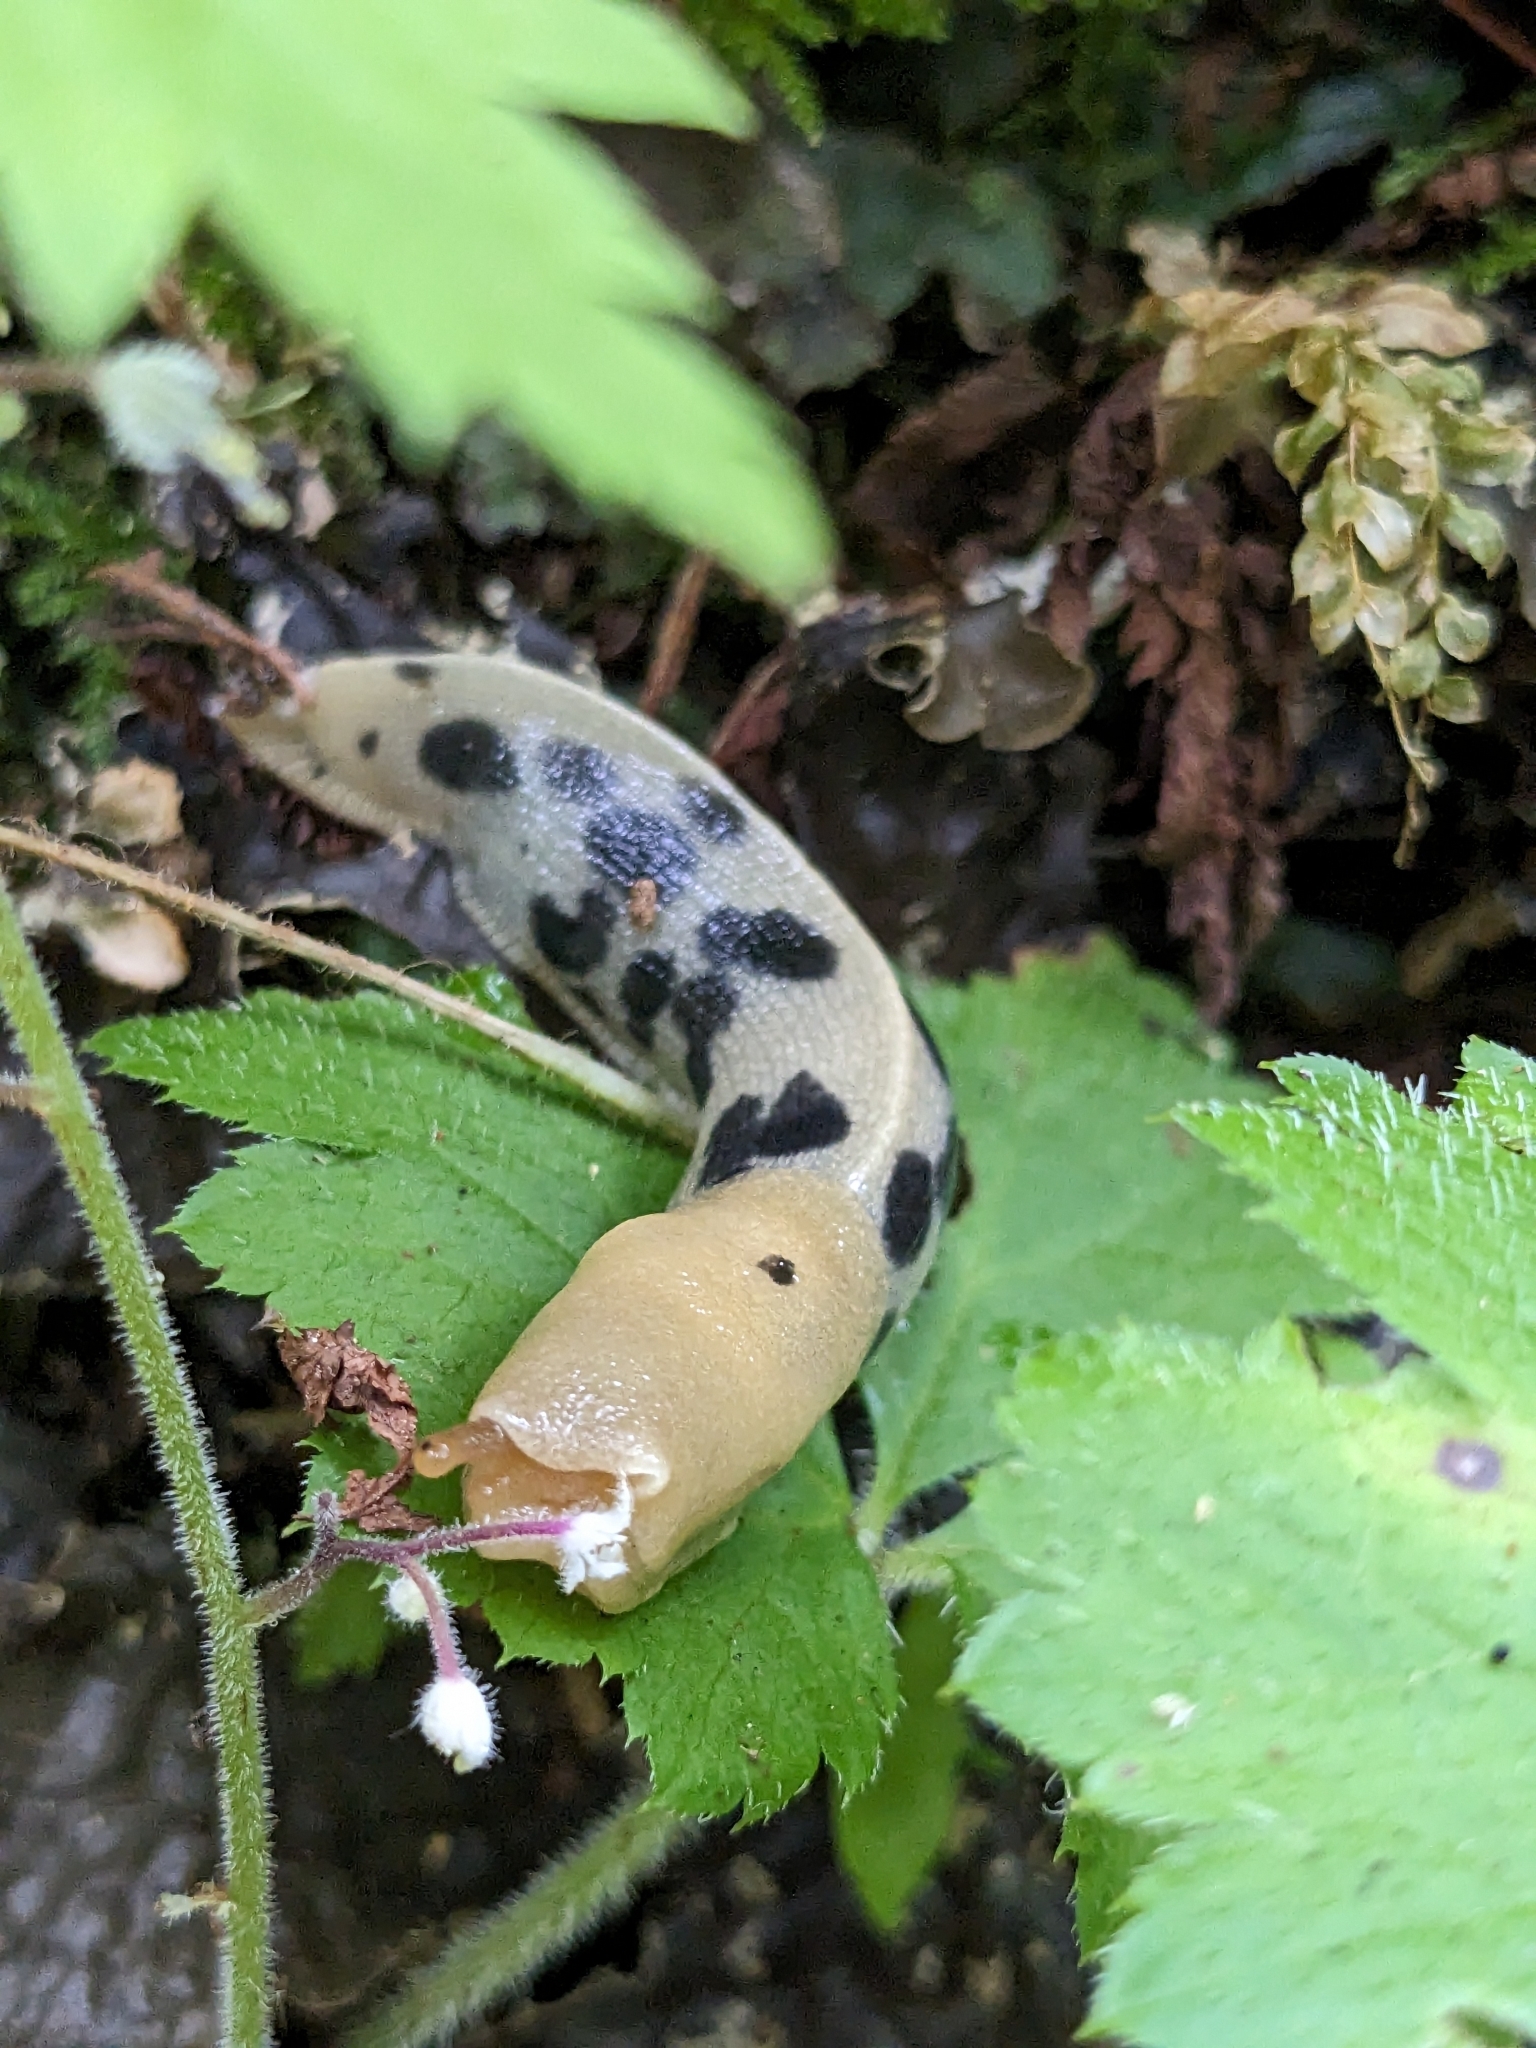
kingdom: Animalia
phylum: Mollusca
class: Gastropoda
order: Stylommatophora
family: Ariolimacidae
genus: Ariolimax
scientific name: Ariolimax columbianus
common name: Pacific banana slug
